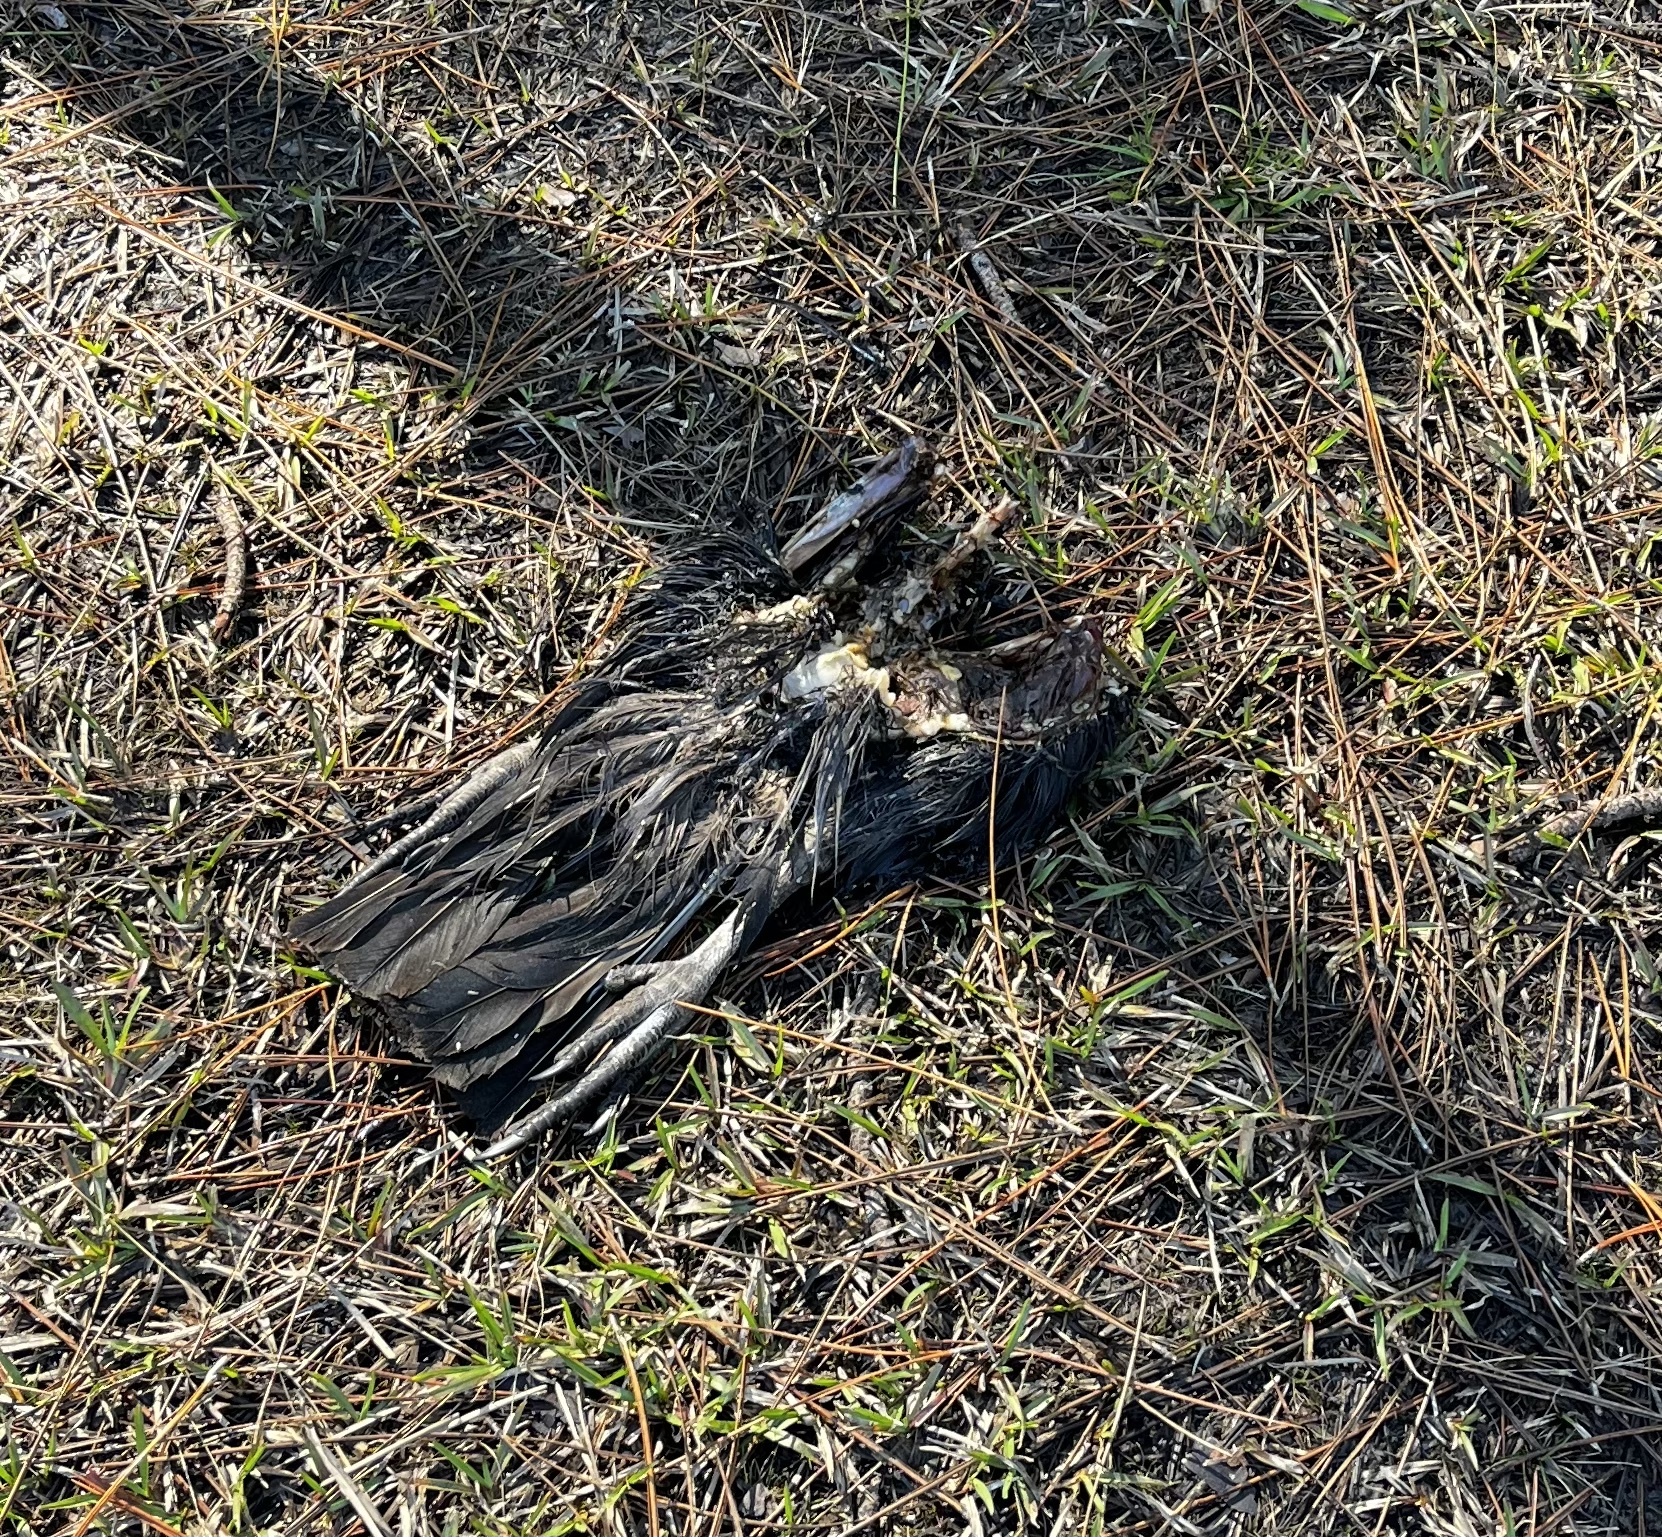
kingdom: Animalia
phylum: Chordata
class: Aves
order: Accipitriformes
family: Cathartidae
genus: Coragyps
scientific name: Coragyps atratus
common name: Black vulture
